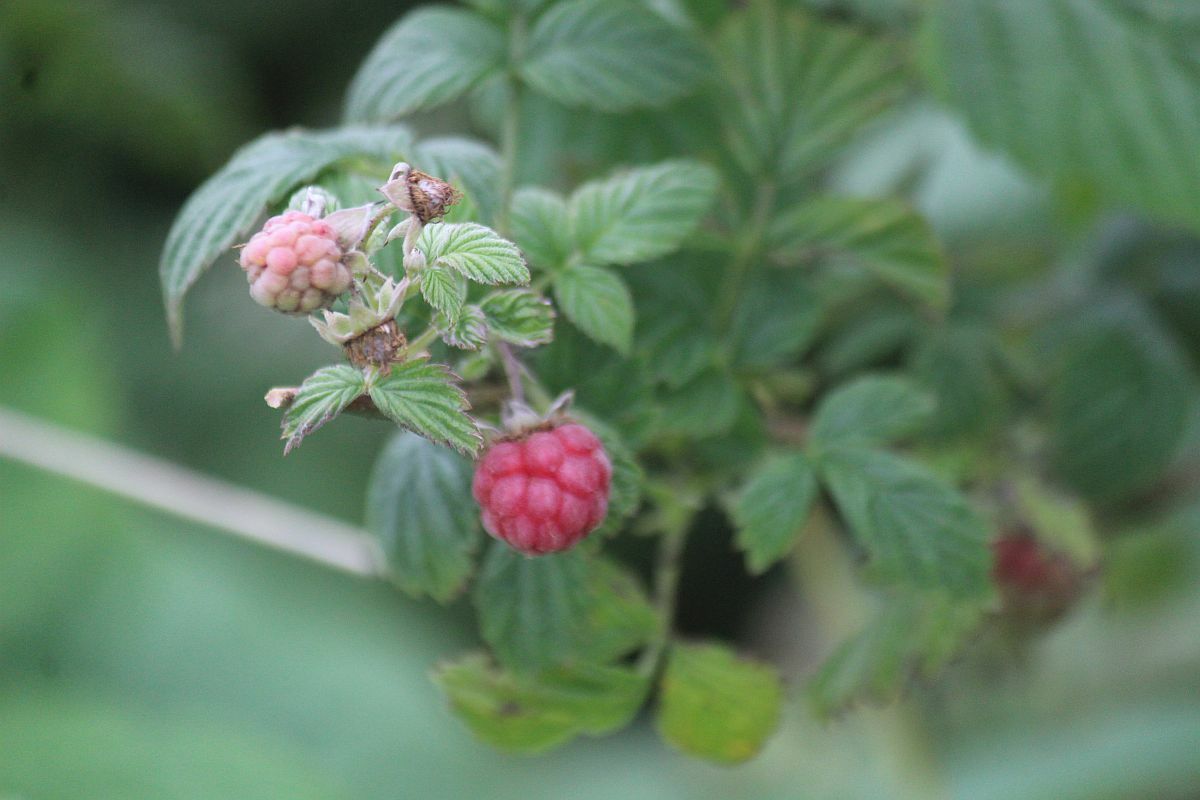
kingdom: Plantae
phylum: Tracheophyta
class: Magnoliopsida
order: Rosales
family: Rosaceae
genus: Rubus
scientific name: Rubus idaeus
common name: Raspberry
